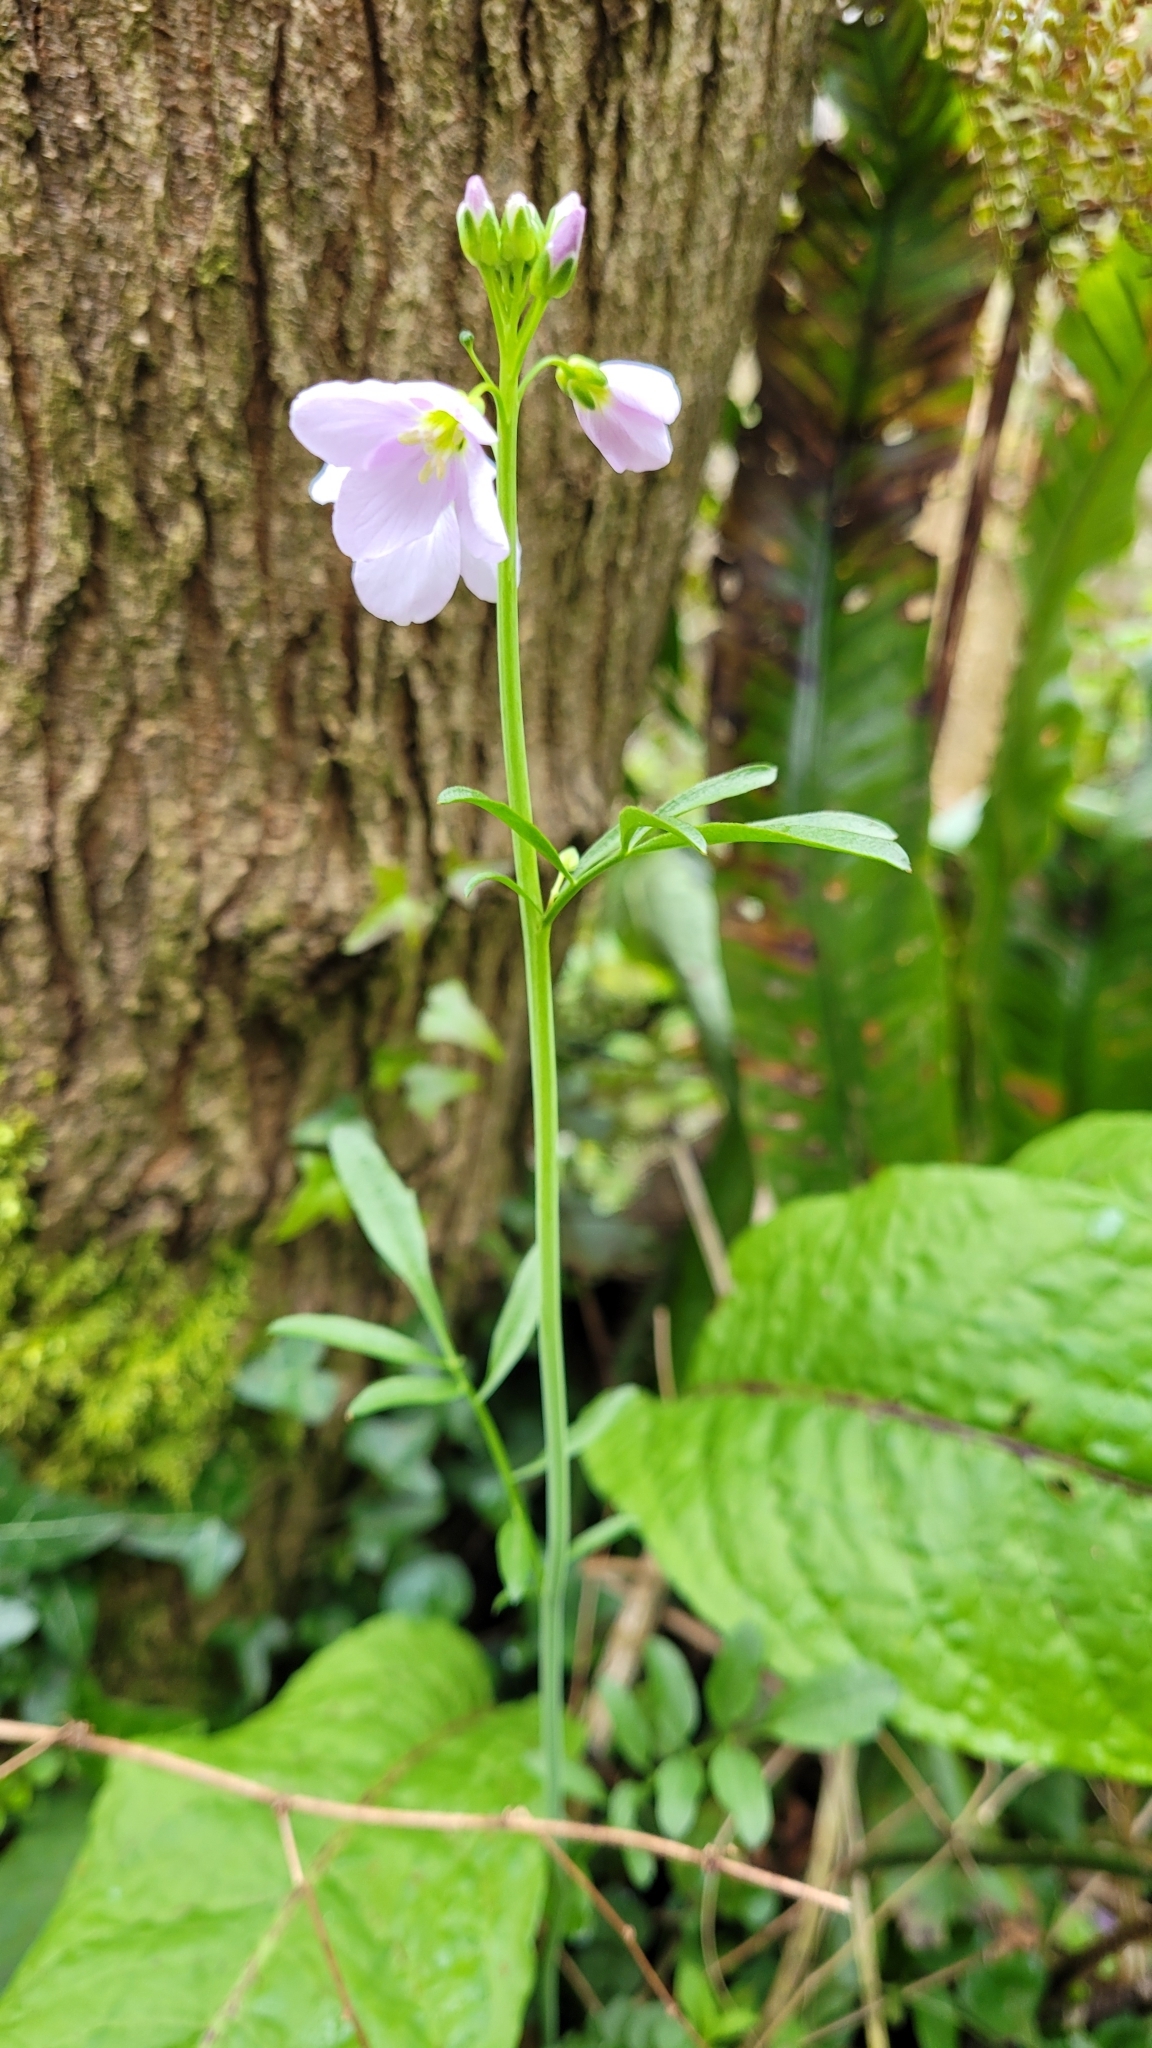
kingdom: Plantae
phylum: Tracheophyta
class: Magnoliopsida
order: Brassicales
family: Brassicaceae
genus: Cardamine
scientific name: Cardamine pratensis
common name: Cuckoo flower
